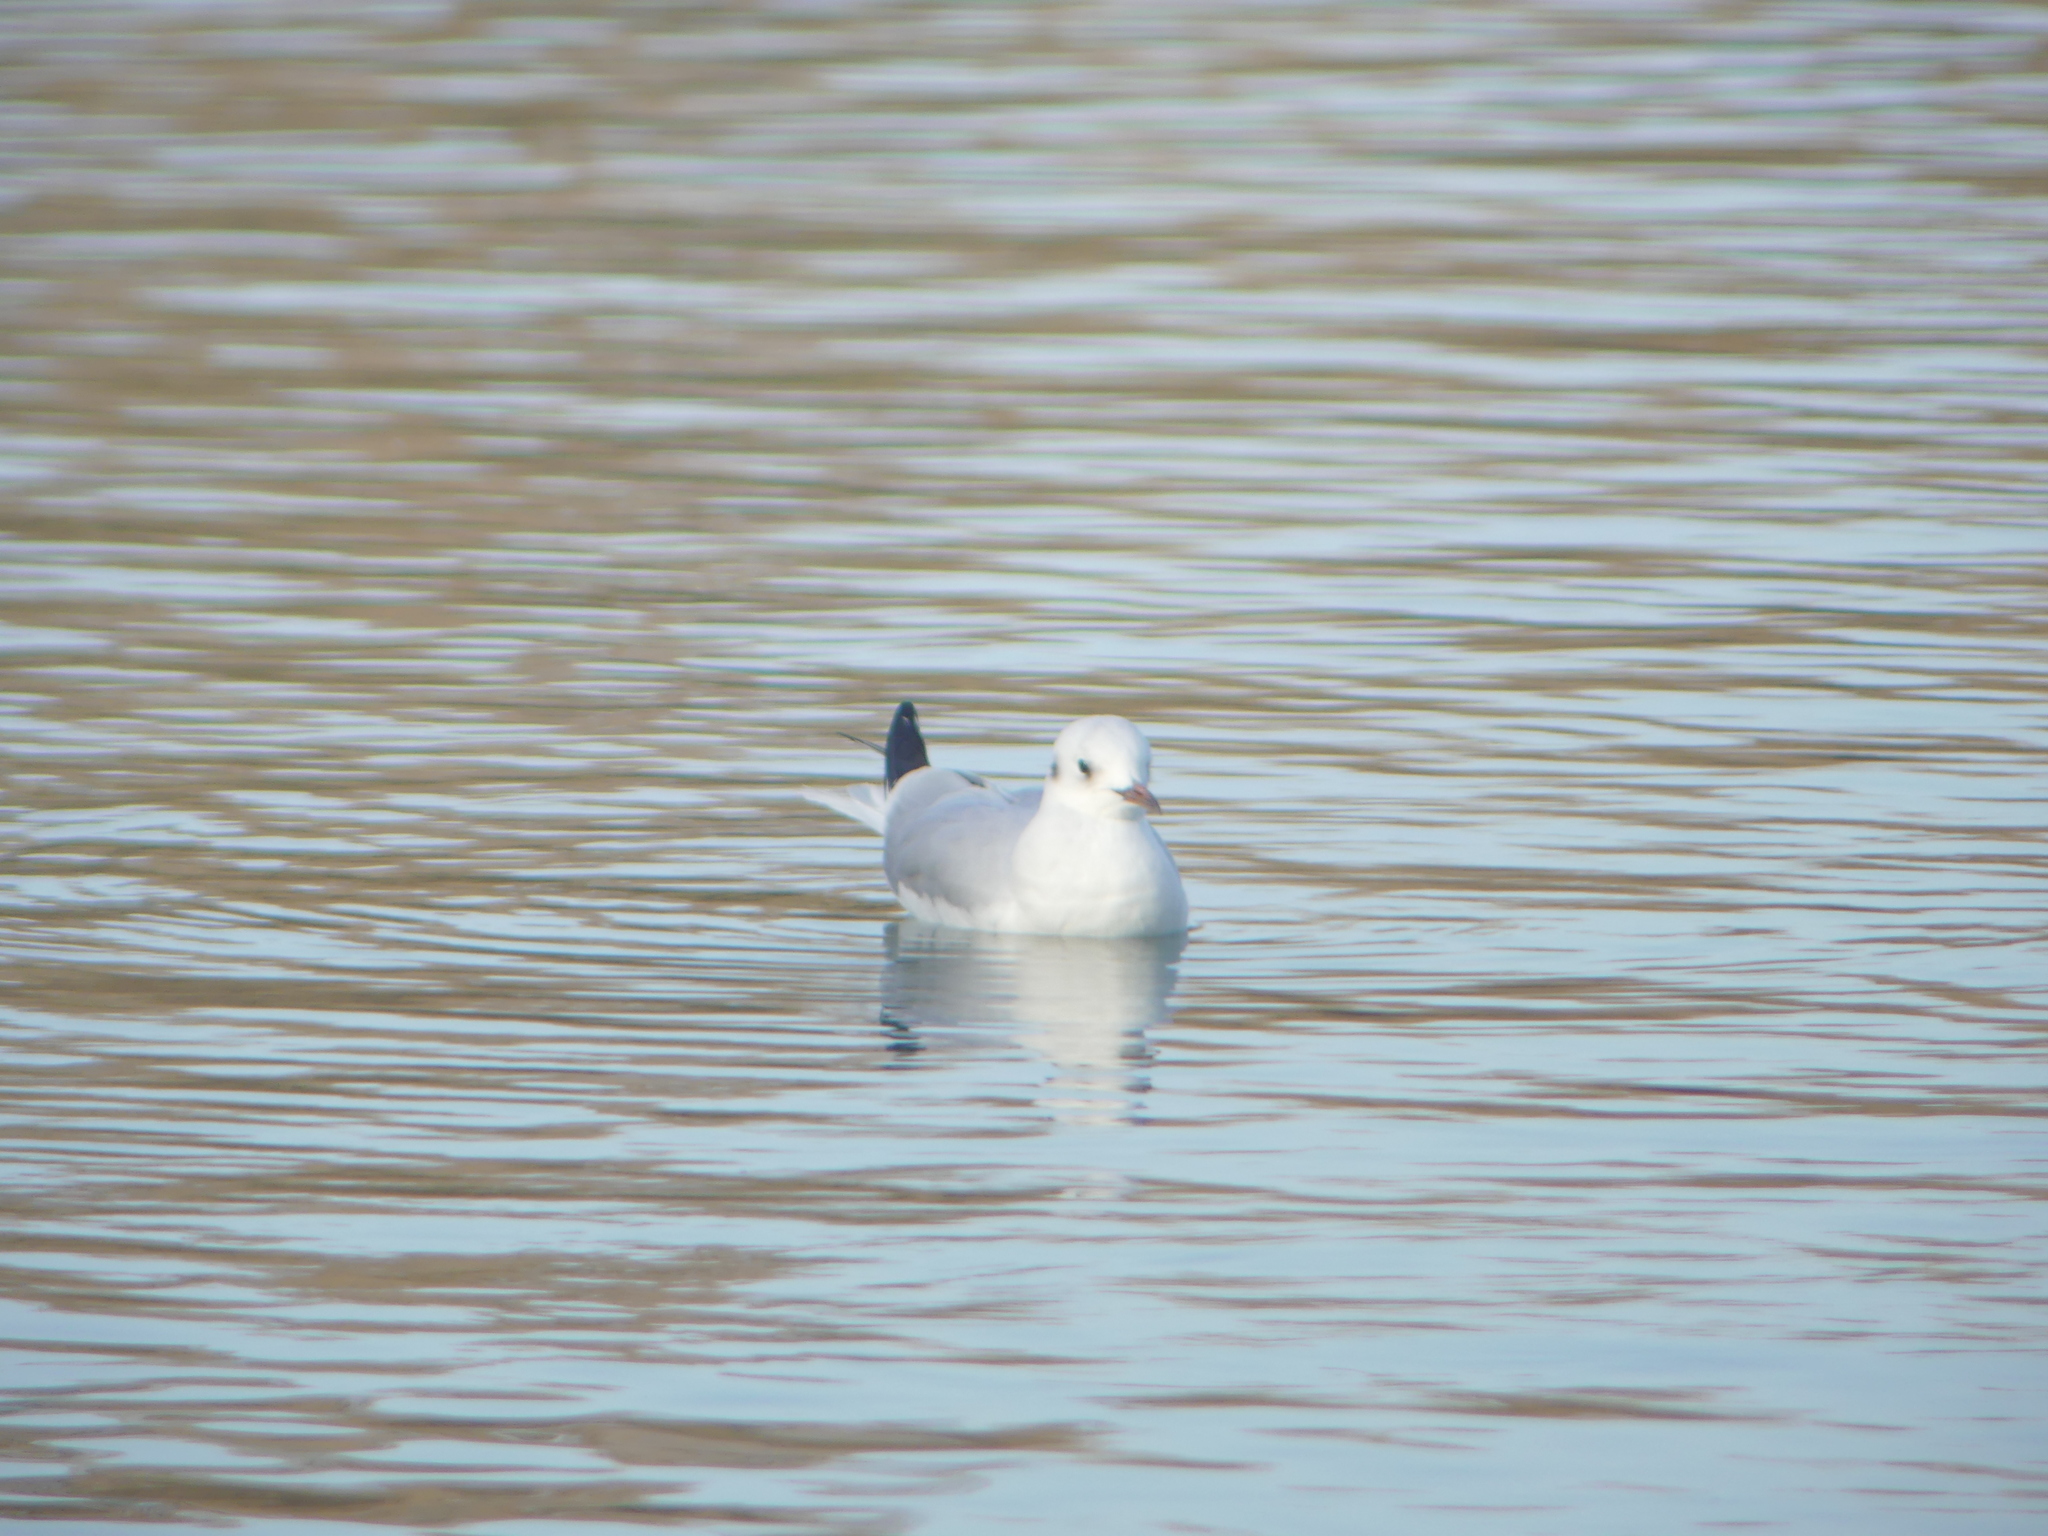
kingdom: Animalia
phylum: Chordata
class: Aves
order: Charadriiformes
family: Laridae
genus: Chroicocephalus
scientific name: Chroicocephalus ridibundus
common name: Black-headed gull
